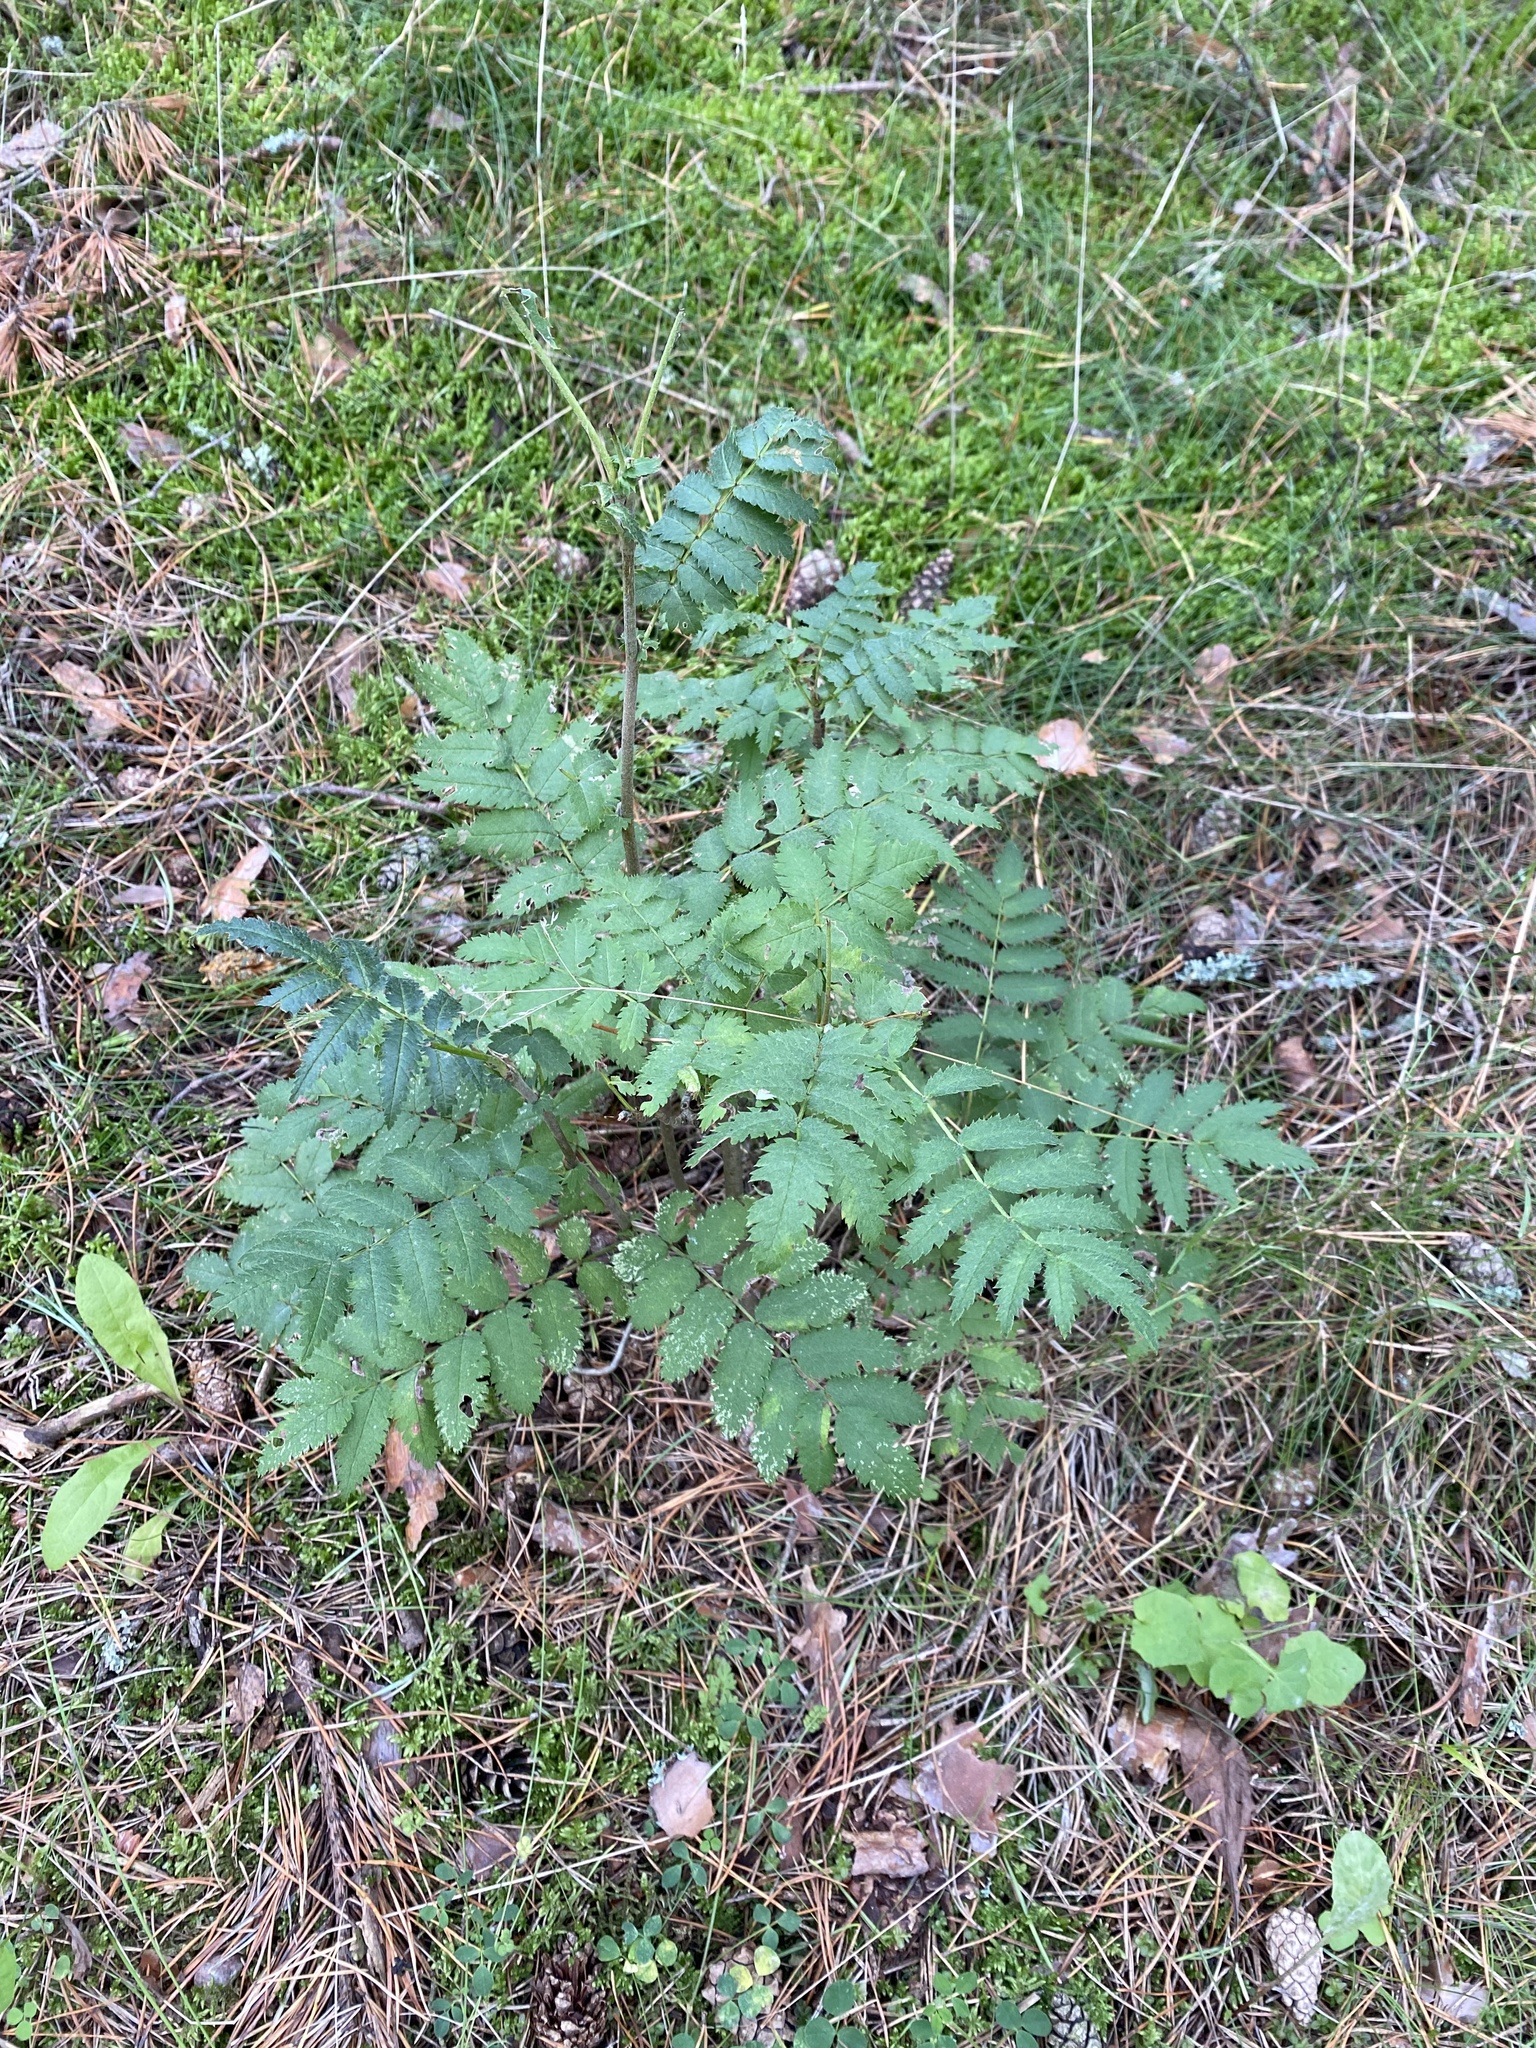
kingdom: Plantae
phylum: Tracheophyta
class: Magnoliopsida
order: Rosales
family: Rosaceae
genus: Sorbus
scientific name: Sorbus aucuparia
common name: Rowan
